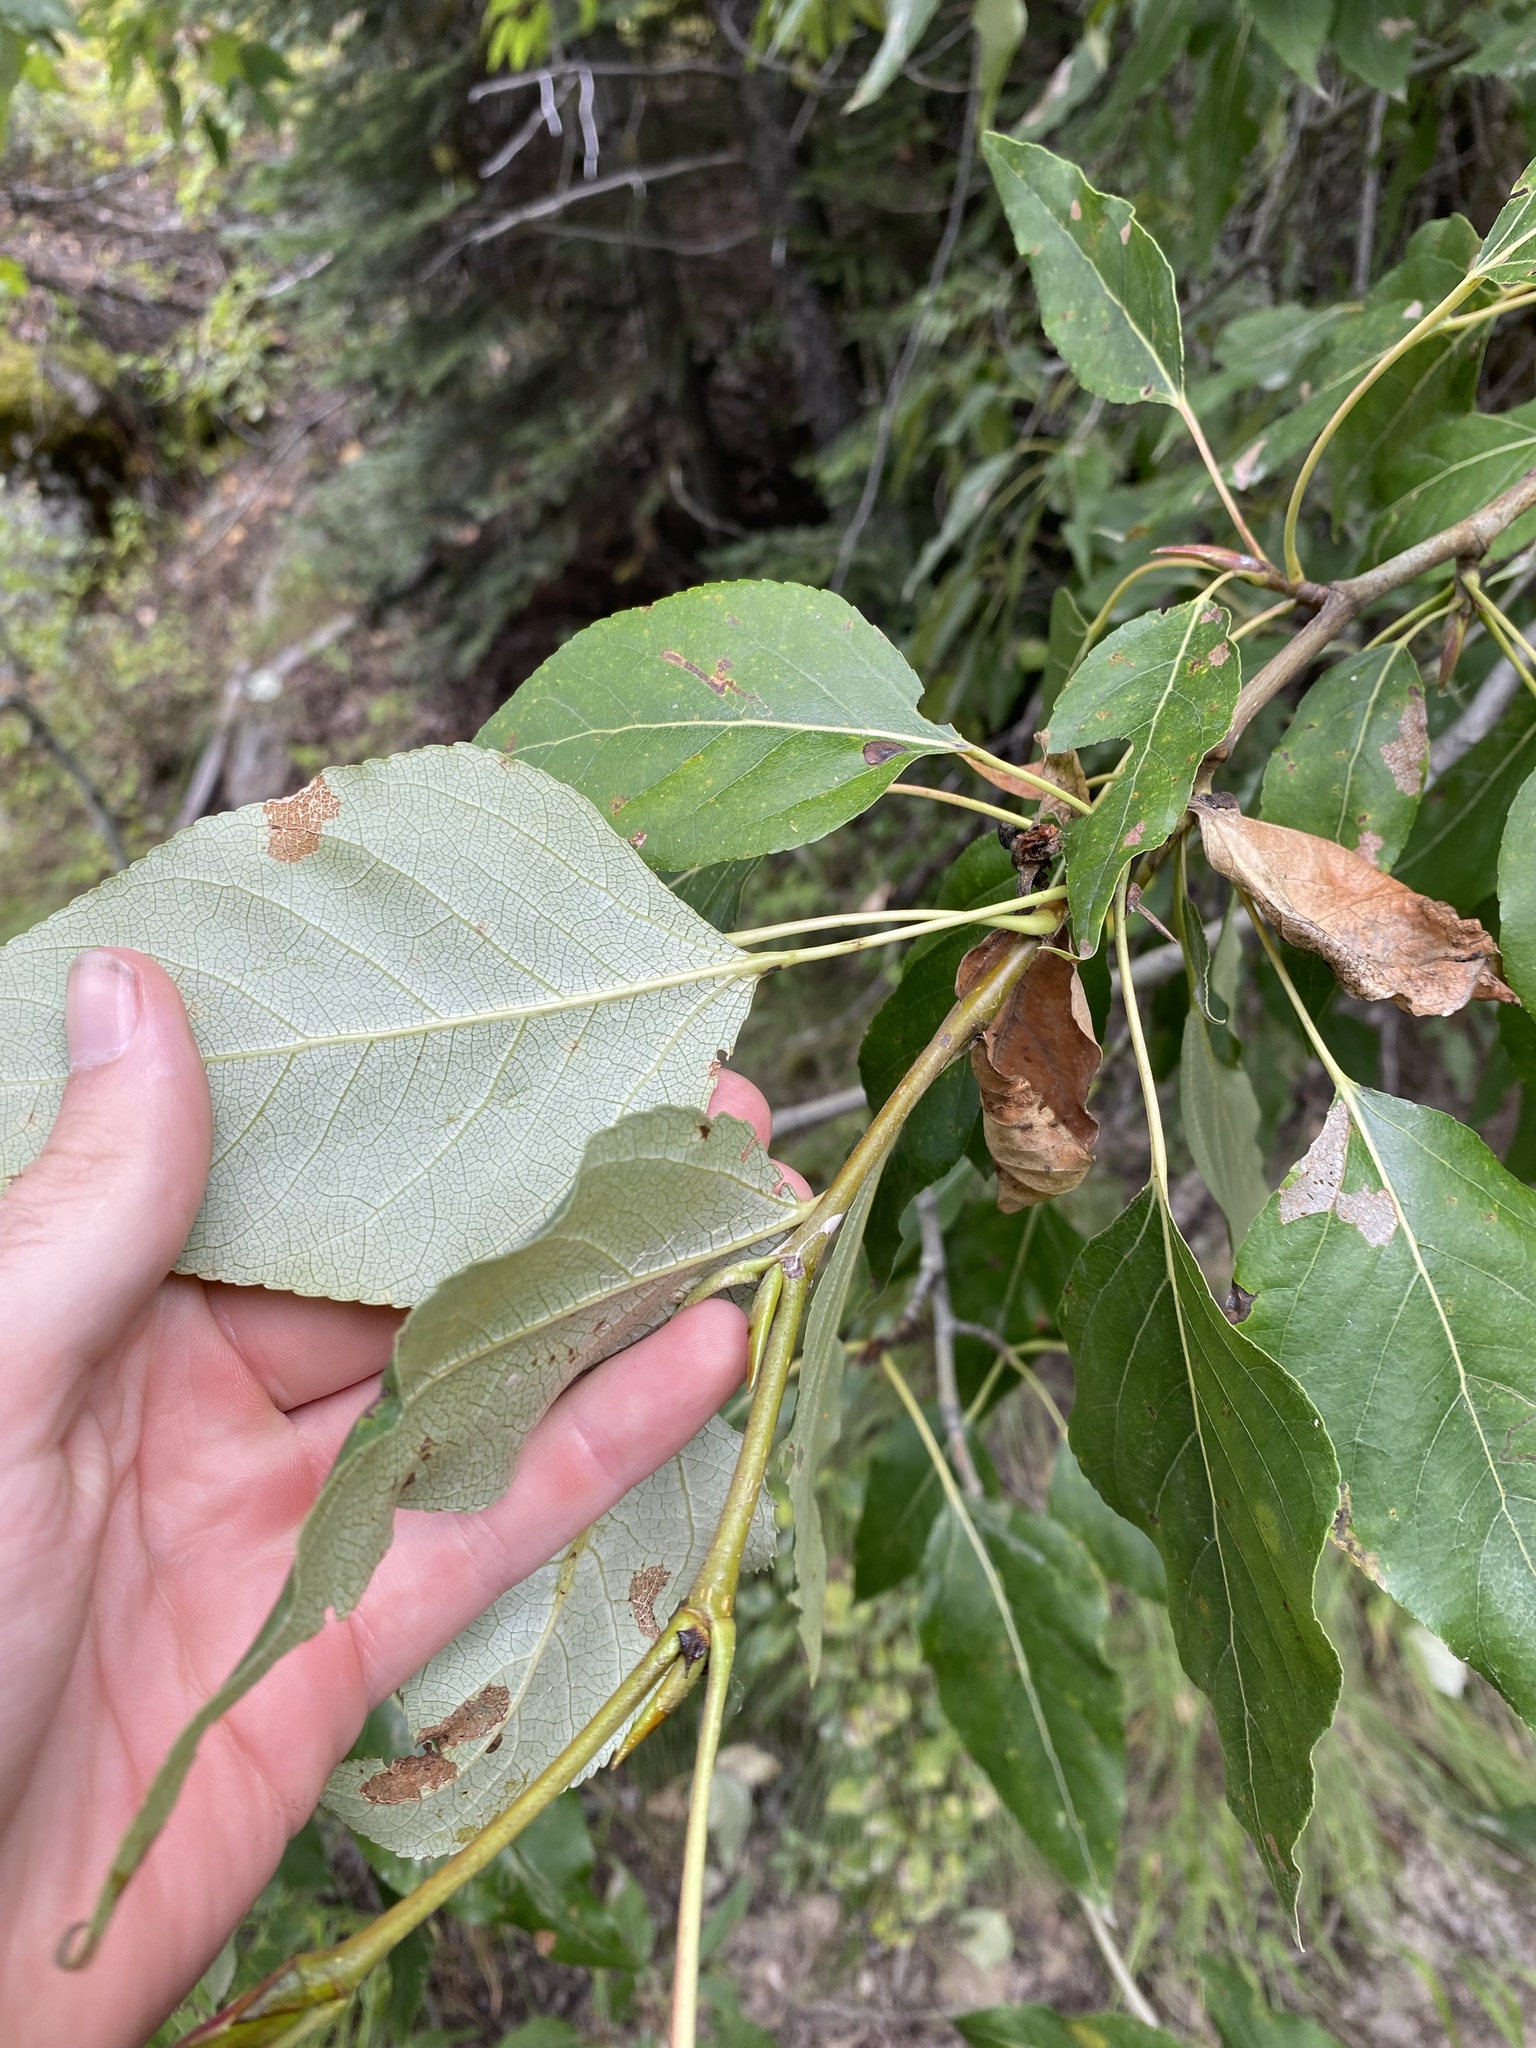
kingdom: Plantae
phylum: Tracheophyta
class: Magnoliopsida
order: Malpighiales
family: Salicaceae
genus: Populus
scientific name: Populus trichocarpa
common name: Black cottonwood
